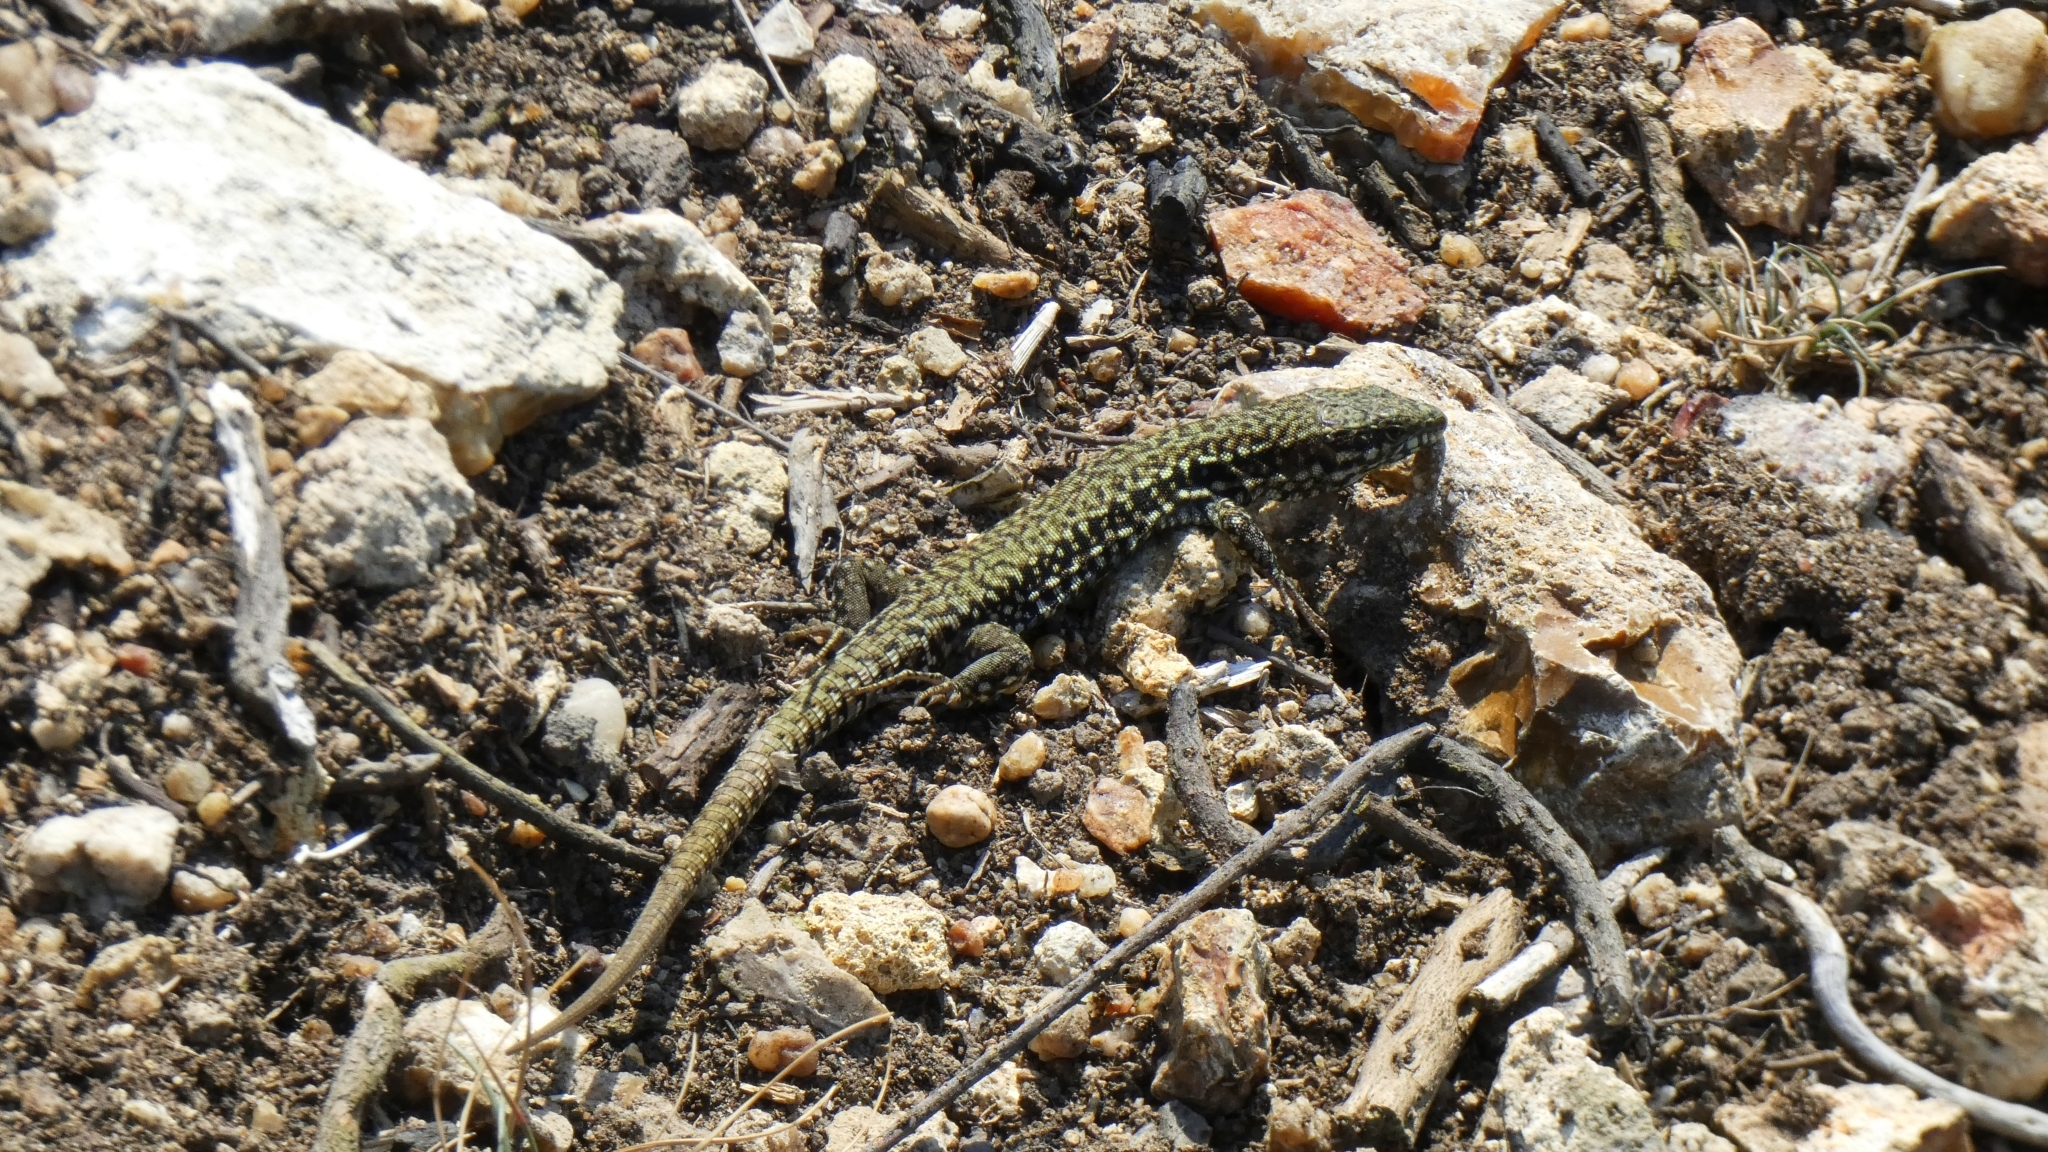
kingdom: Animalia
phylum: Chordata
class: Squamata
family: Lacertidae
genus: Podarcis
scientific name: Podarcis muralis
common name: Common wall lizard
